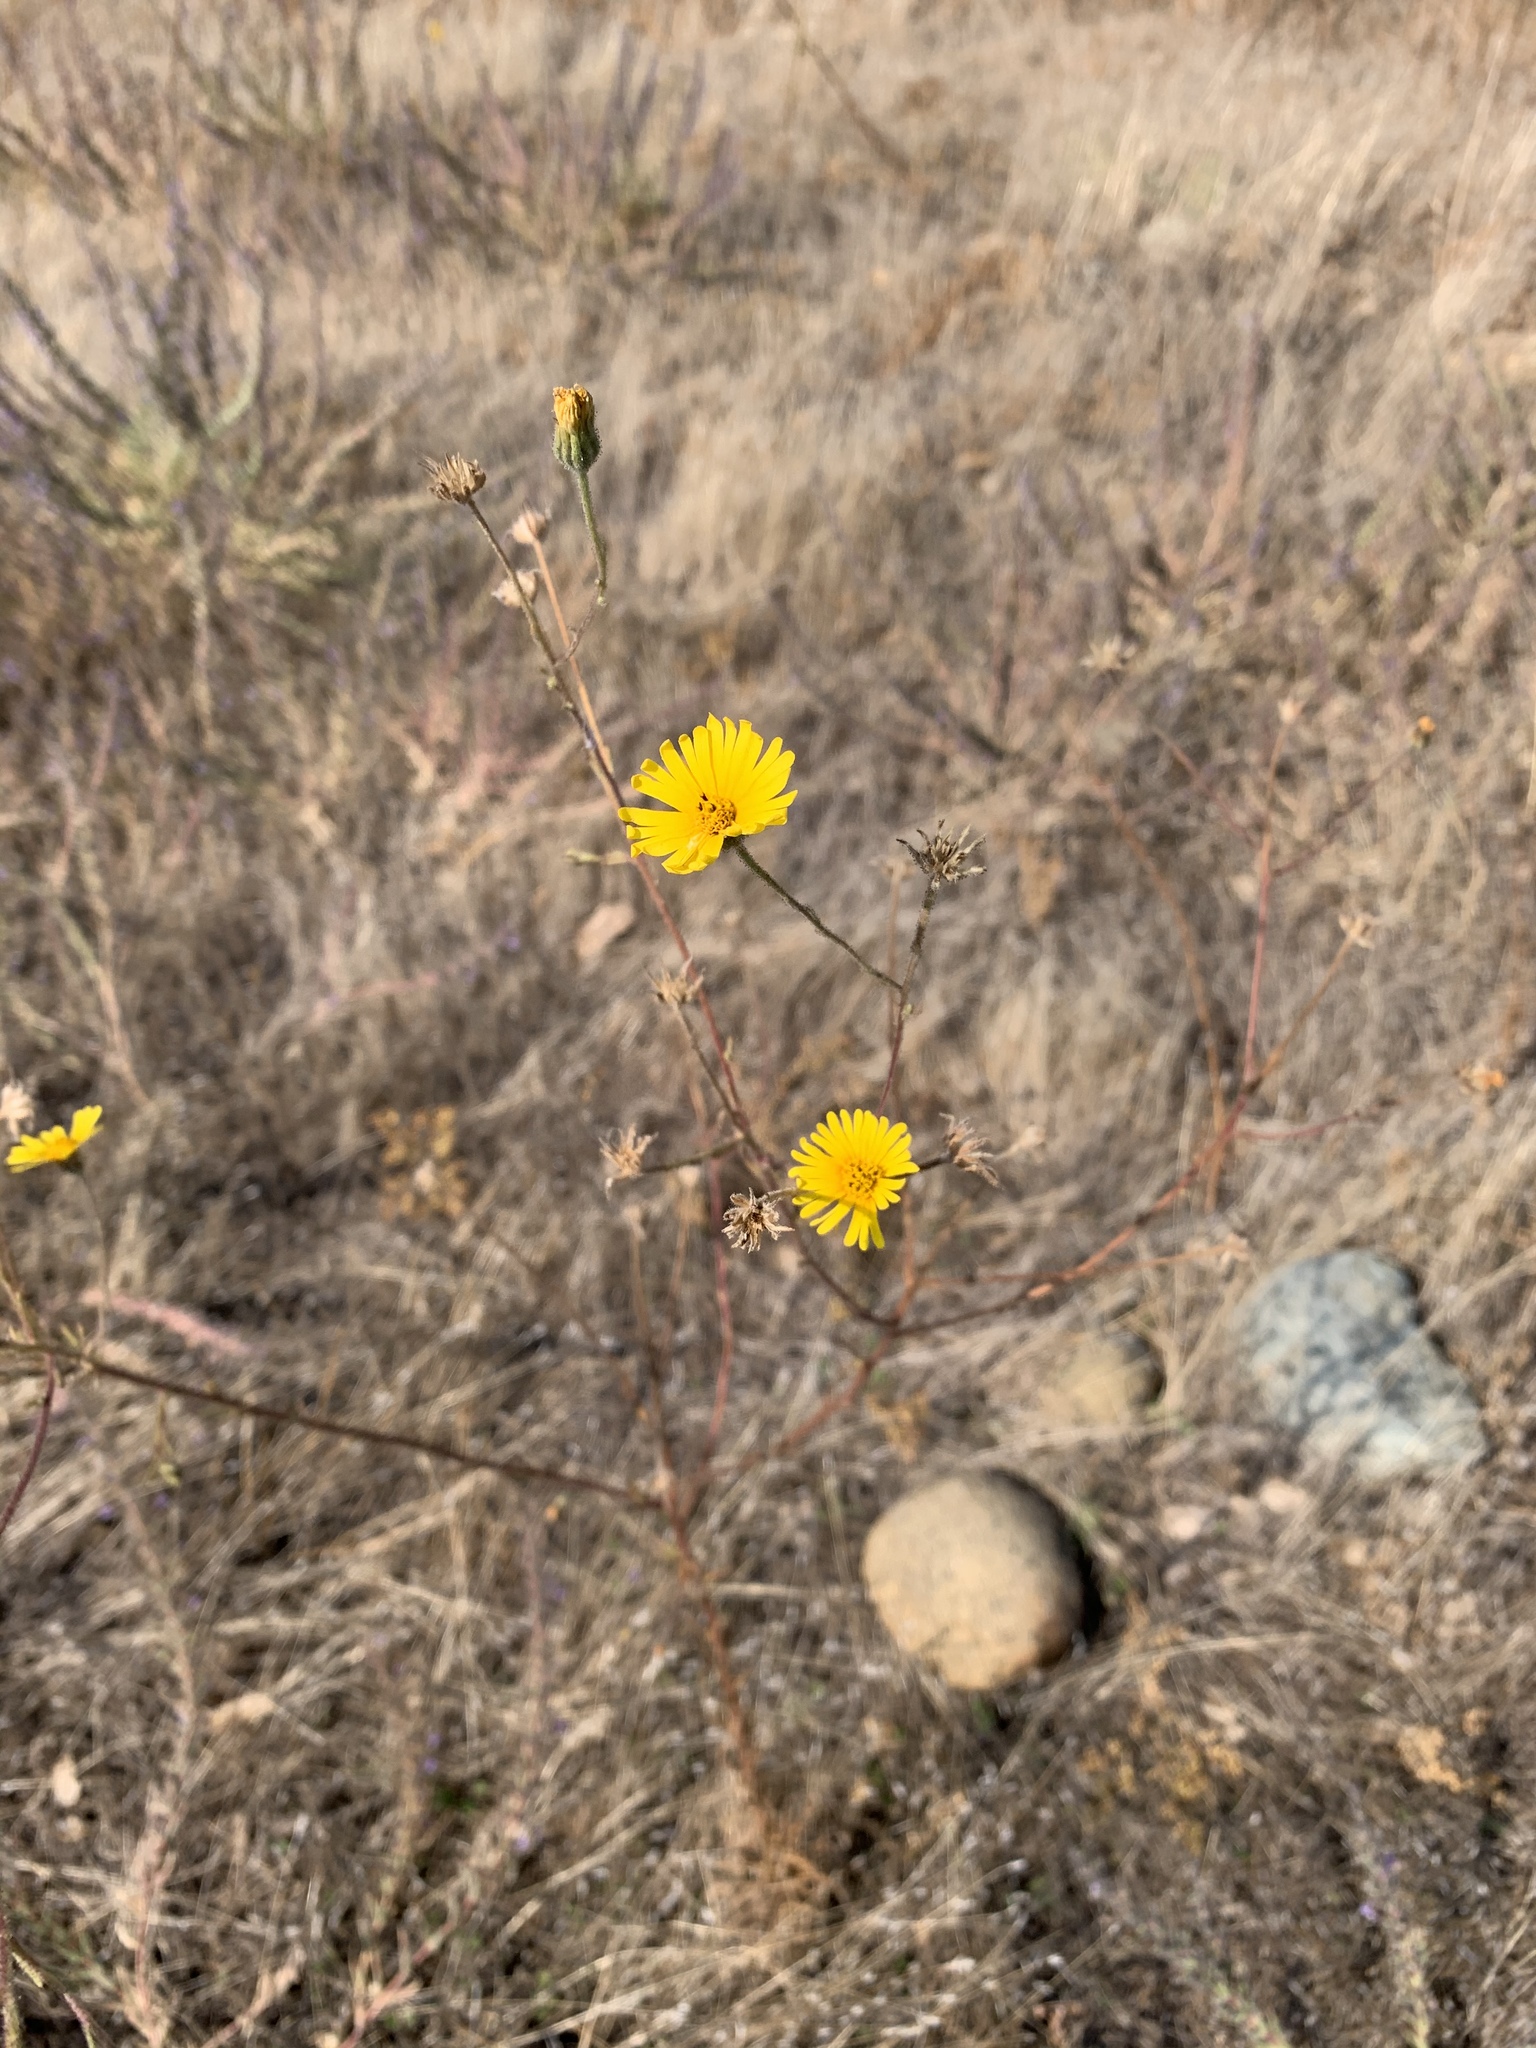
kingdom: Plantae
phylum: Tracheophyta
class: Magnoliopsida
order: Asterales
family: Asteraceae
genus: Madia
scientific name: Madia elegans
